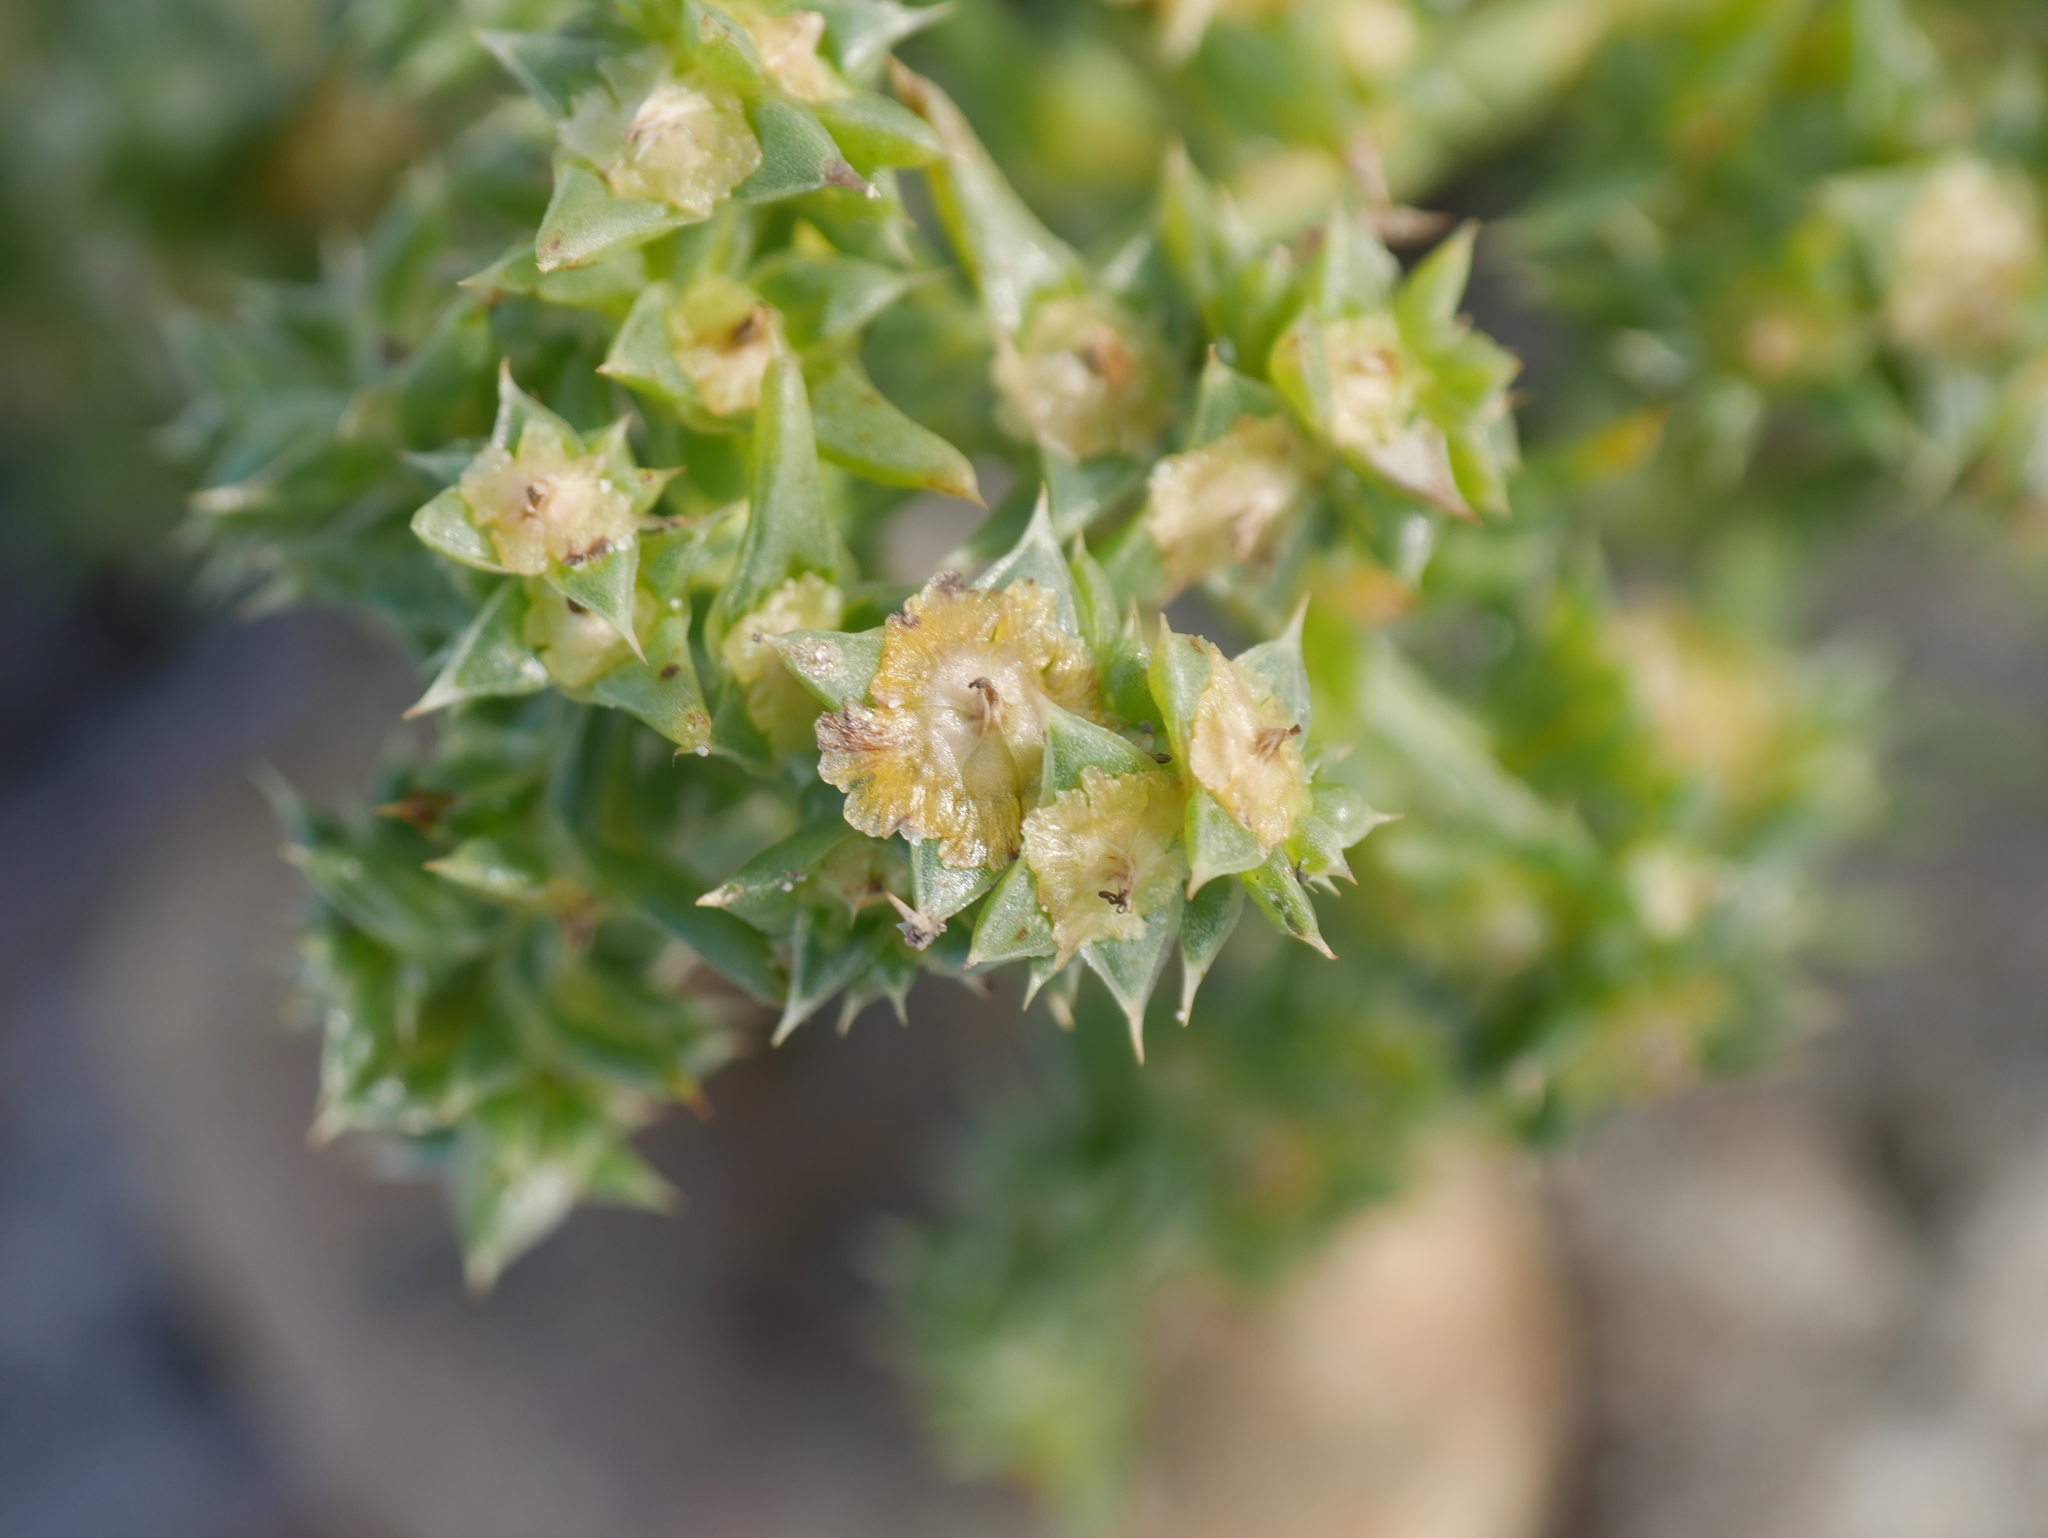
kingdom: Plantae
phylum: Tracheophyta
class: Magnoliopsida
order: Caryophyllales
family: Amaranthaceae
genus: Salsola
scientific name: Salsola kali
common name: Saltwort
